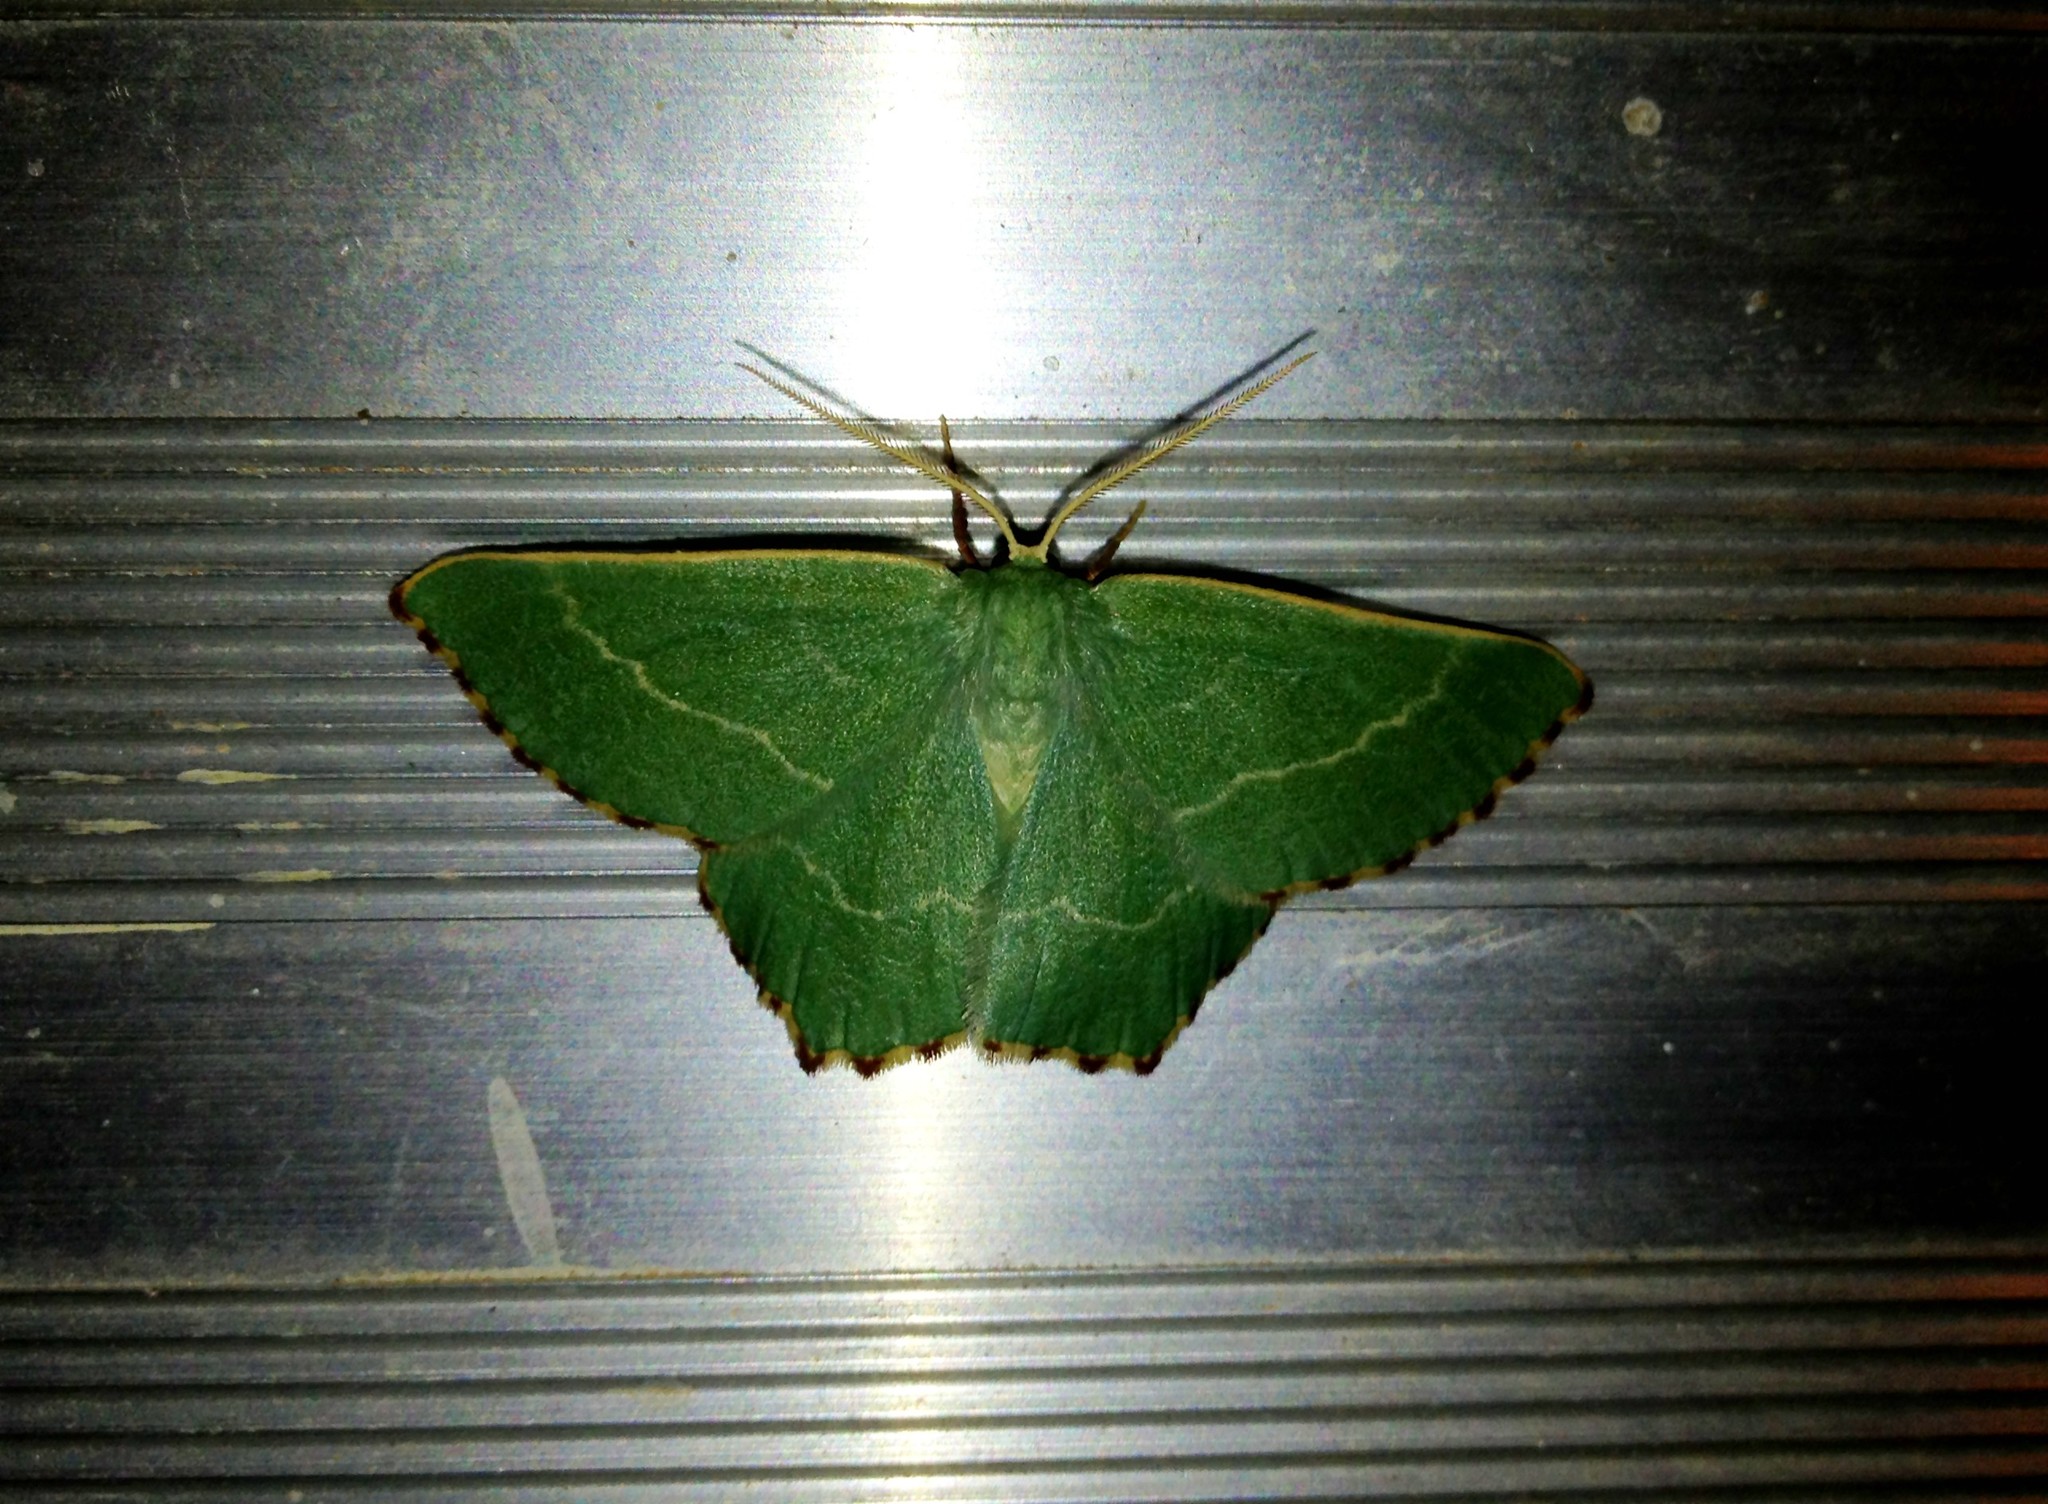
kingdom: Animalia
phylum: Arthropoda
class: Insecta
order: Lepidoptera
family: Geometridae
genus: Thalera
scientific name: Thalera fimbrialis
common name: Sussex emerald
